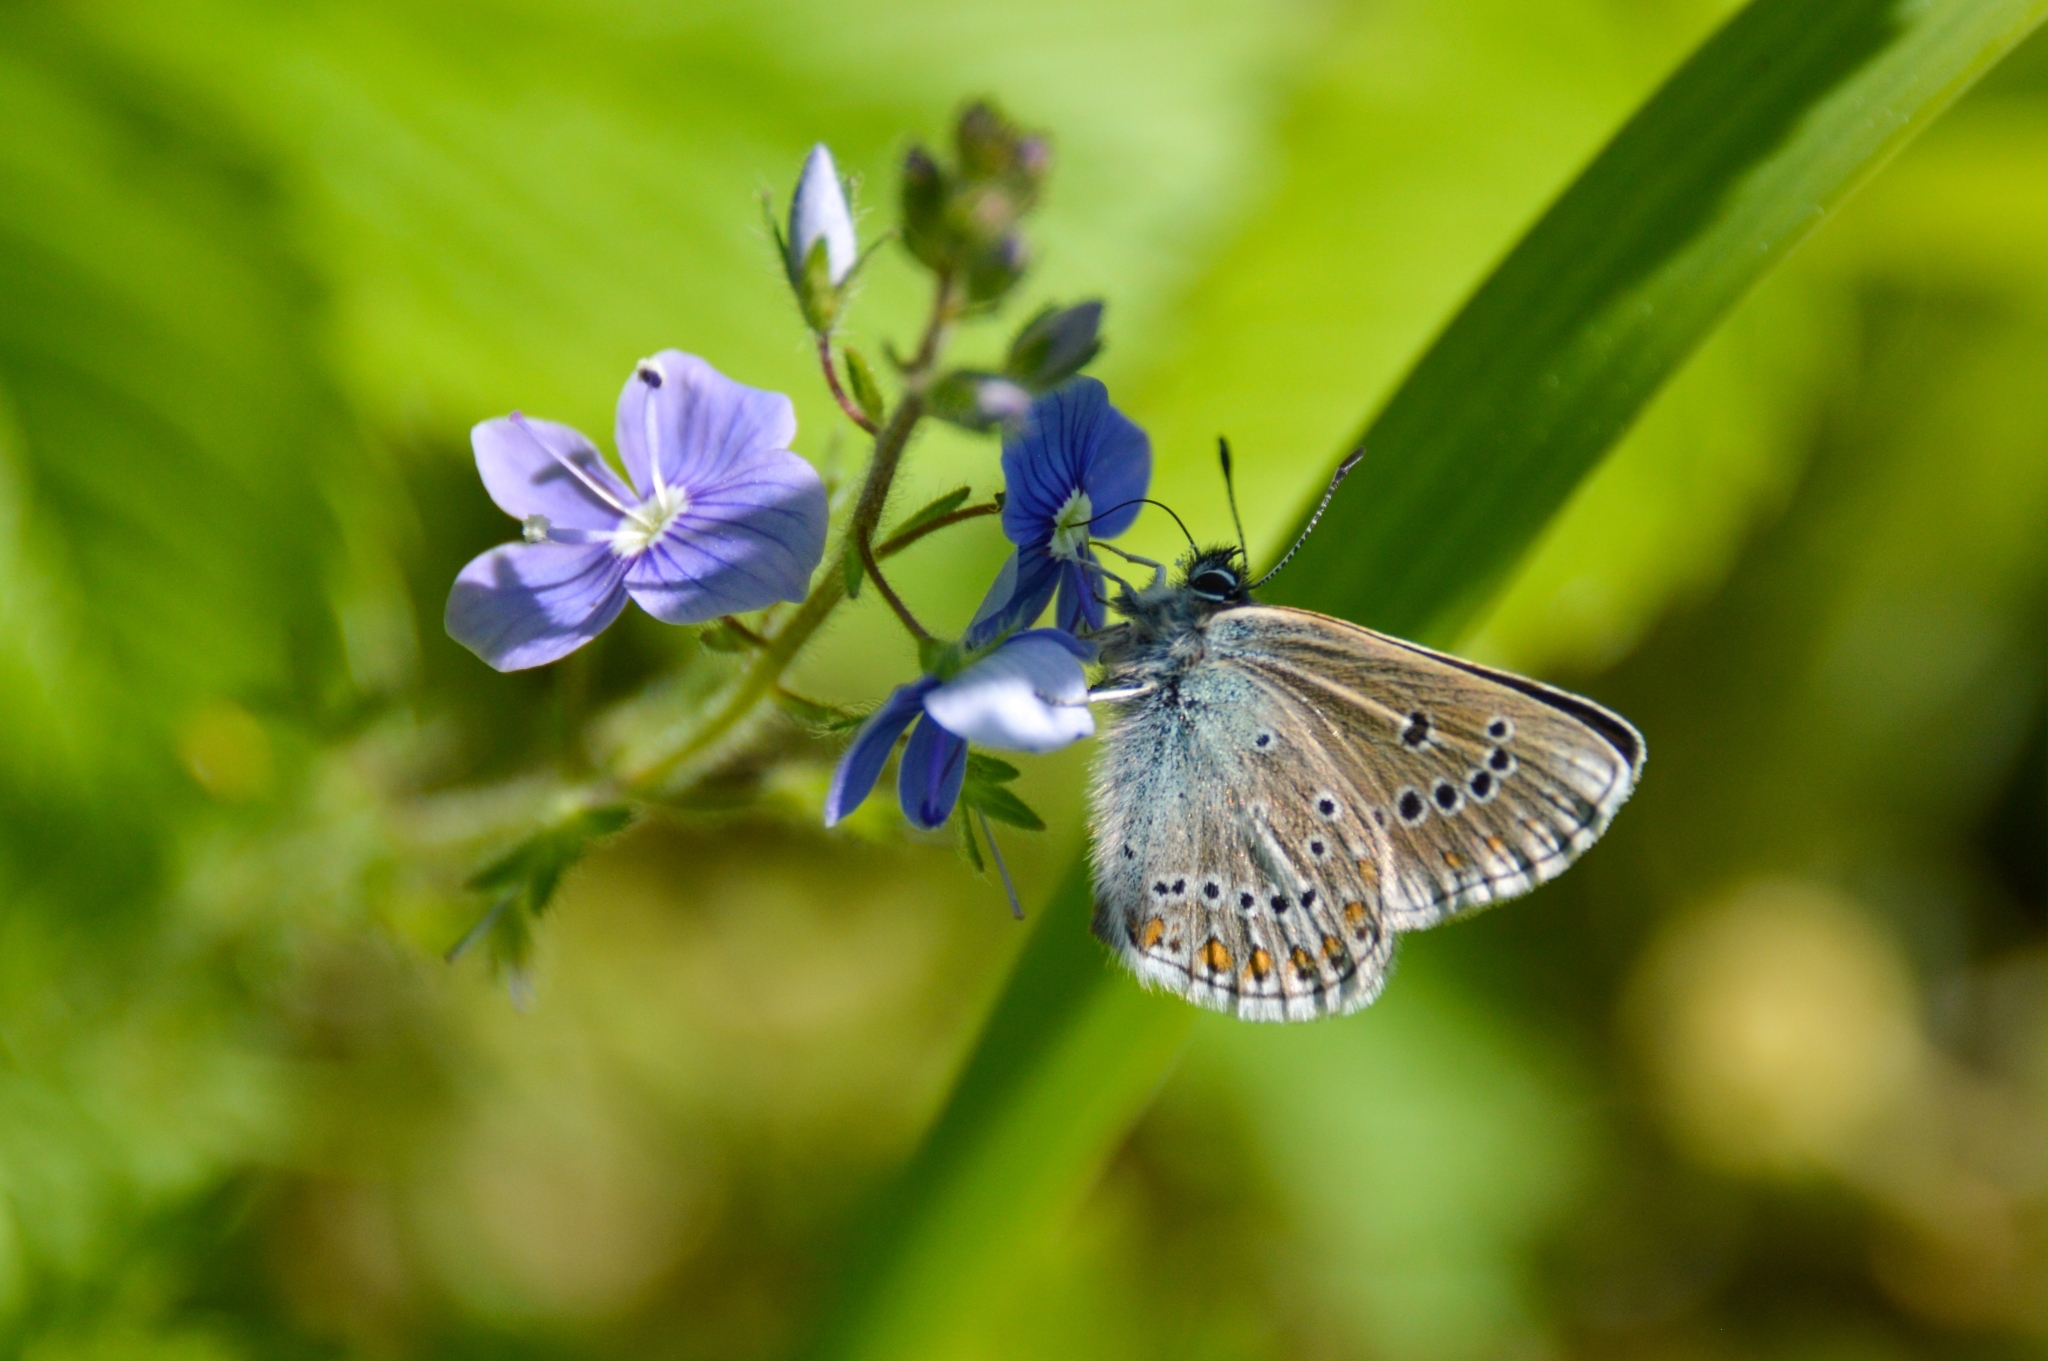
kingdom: Animalia
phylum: Arthropoda
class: Insecta
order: Lepidoptera
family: Lycaenidae
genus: Eumedonia
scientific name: Eumedonia eumedon
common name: Geranium argus
